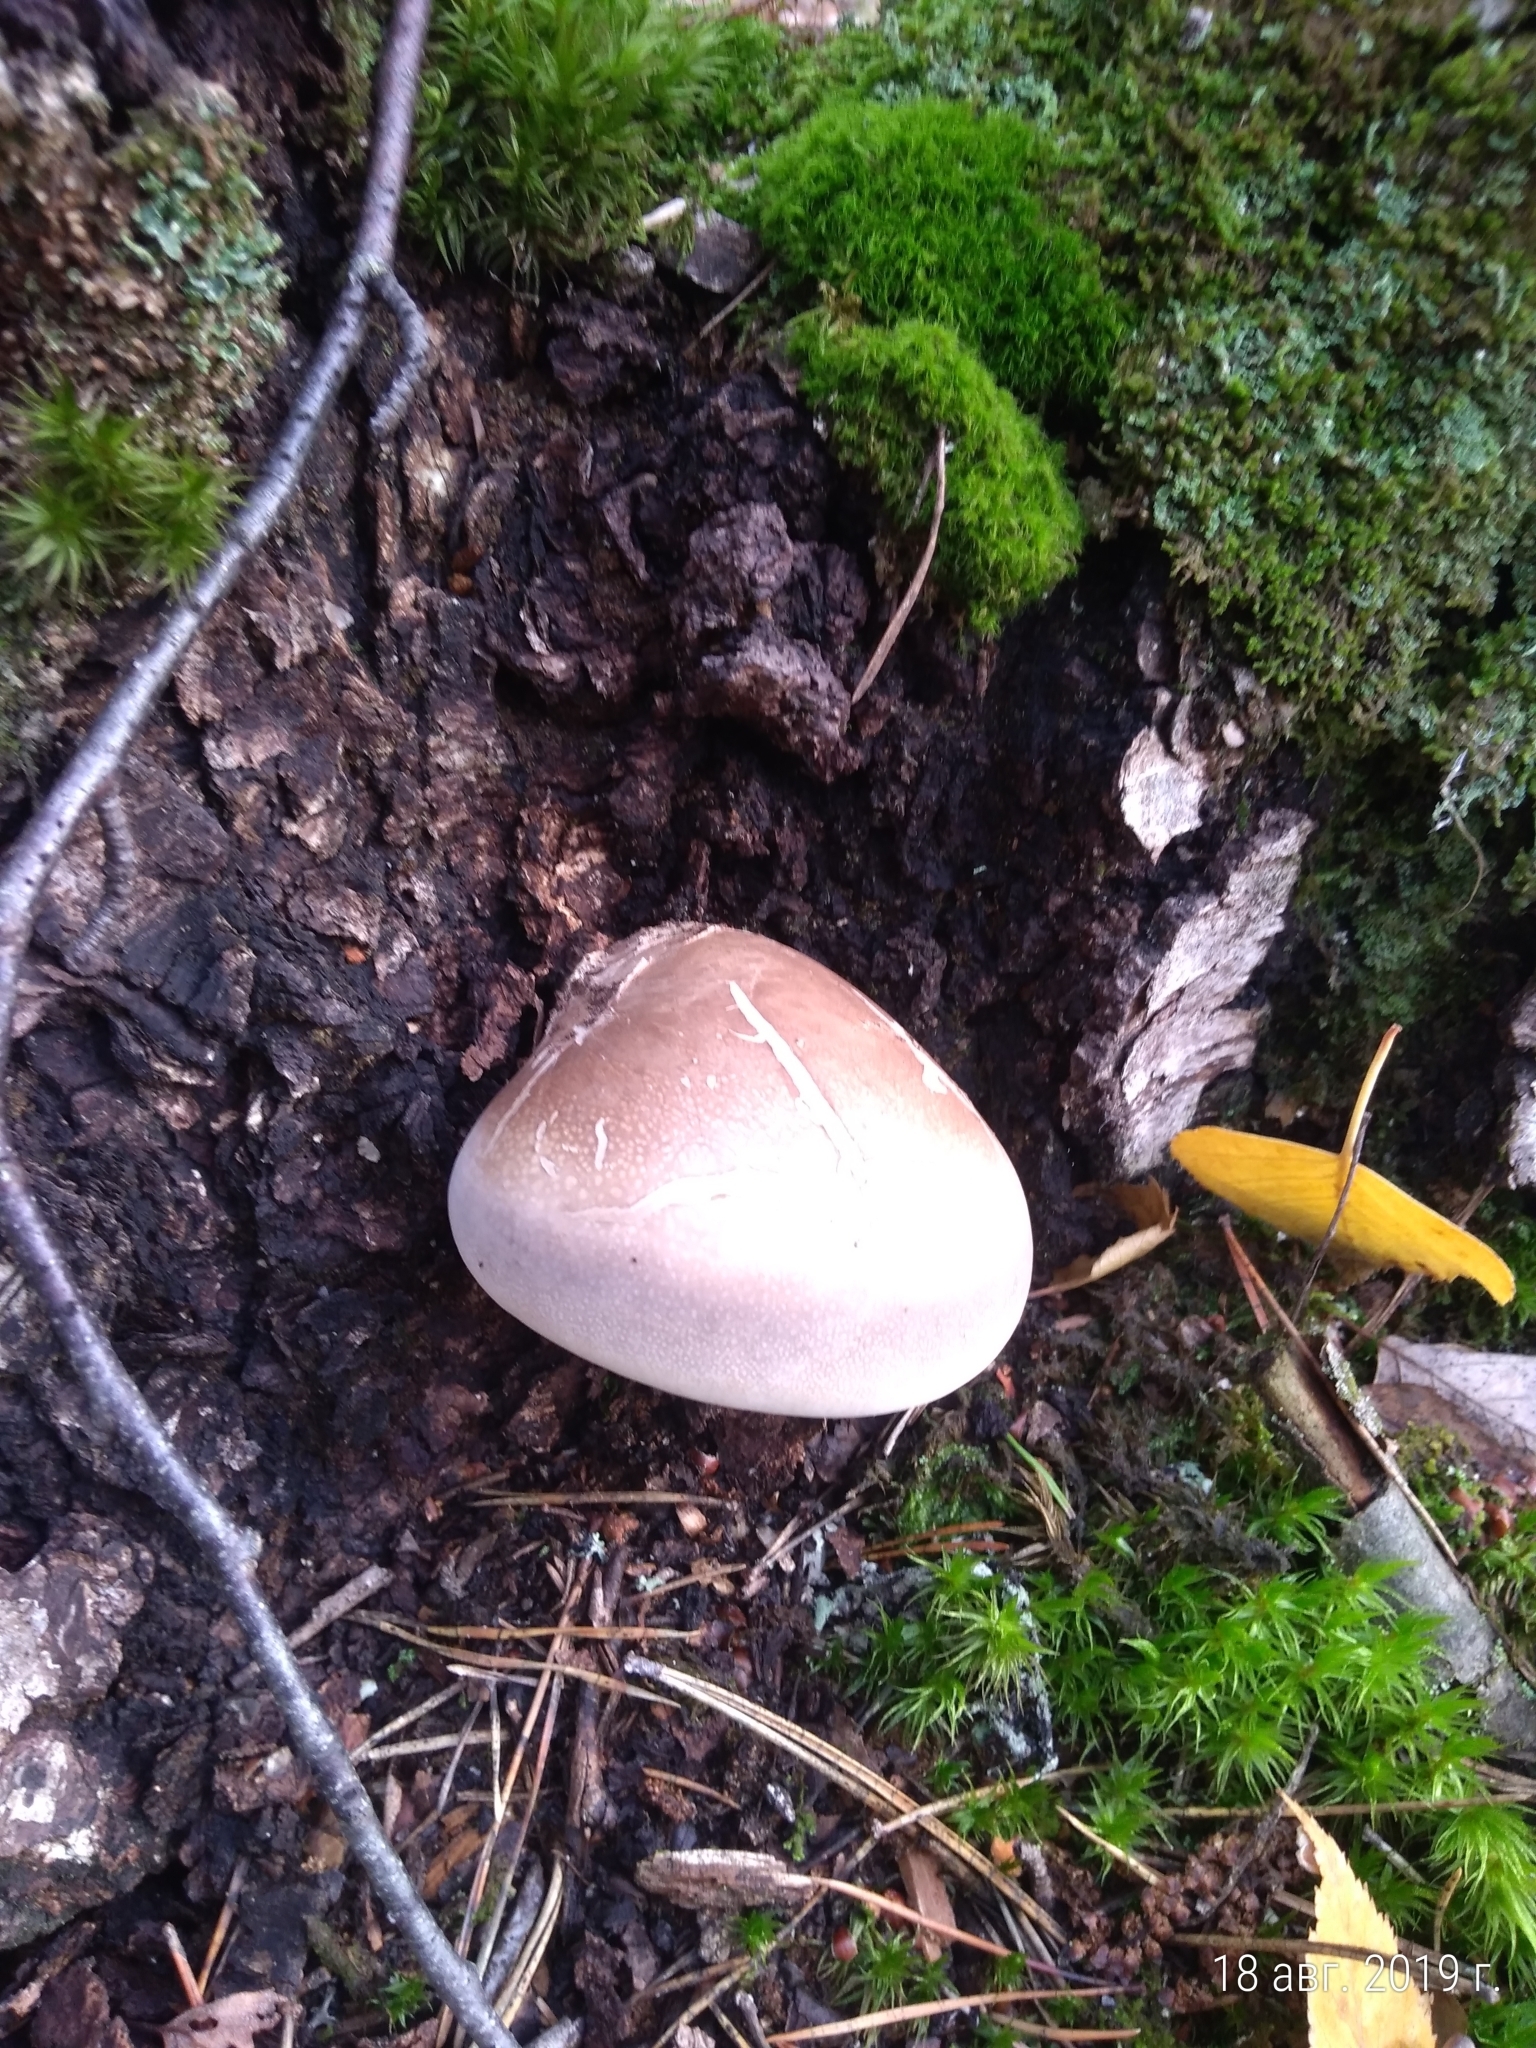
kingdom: Fungi
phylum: Basidiomycota
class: Agaricomycetes
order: Polyporales
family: Fomitopsidaceae
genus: Fomitopsis
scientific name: Fomitopsis betulina
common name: Birch polypore
